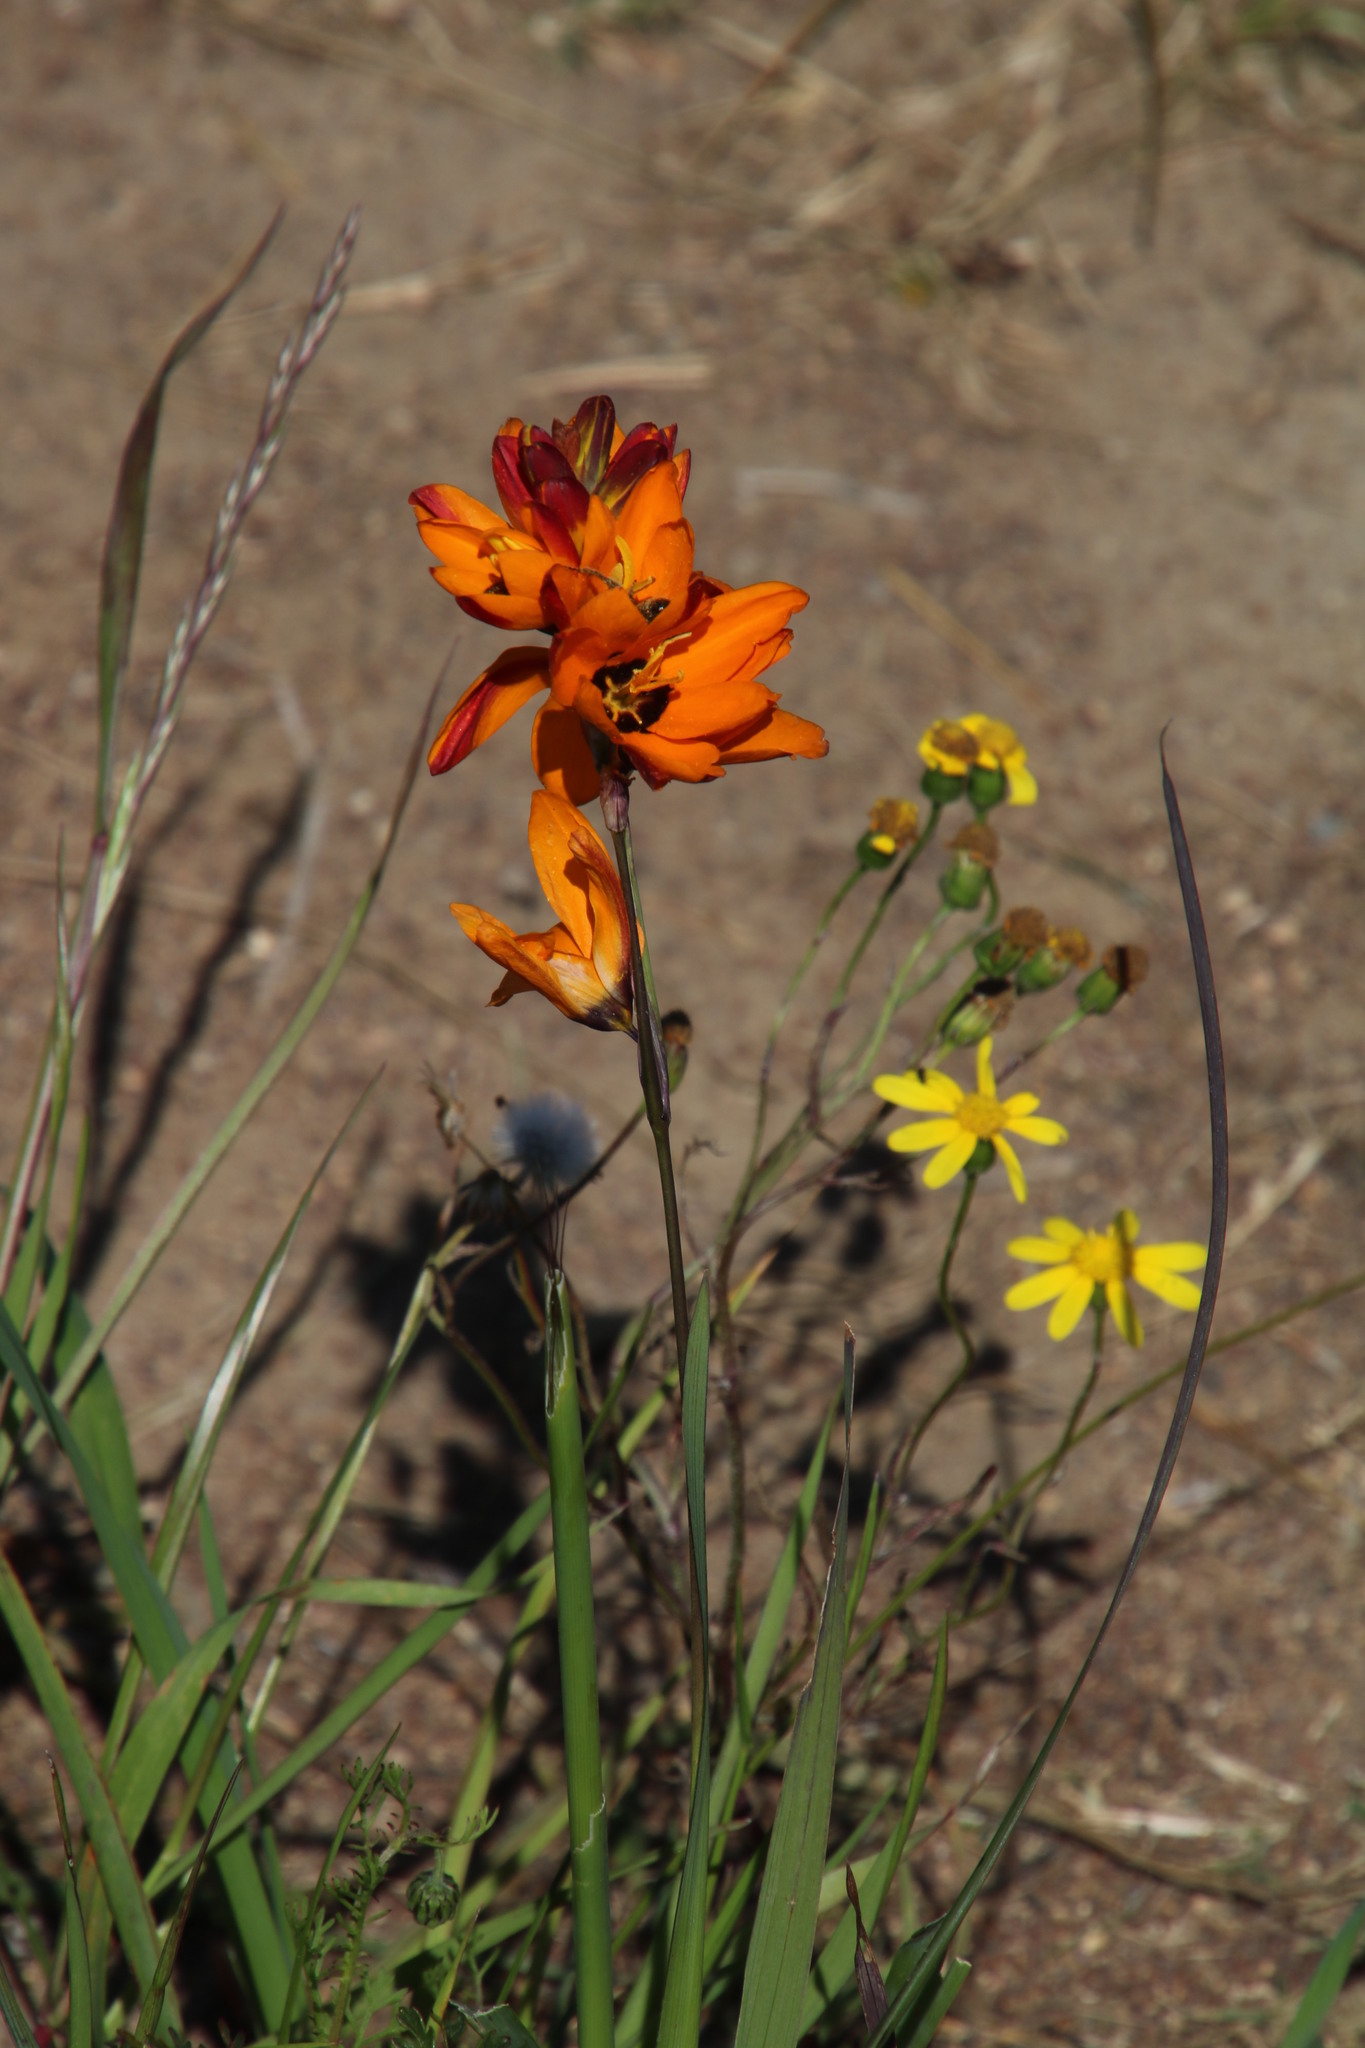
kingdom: Plantae
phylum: Tracheophyta
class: Liliopsida
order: Asparagales
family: Iridaceae
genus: Ixia
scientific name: Ixia maculata
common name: Spotted african cornlily
